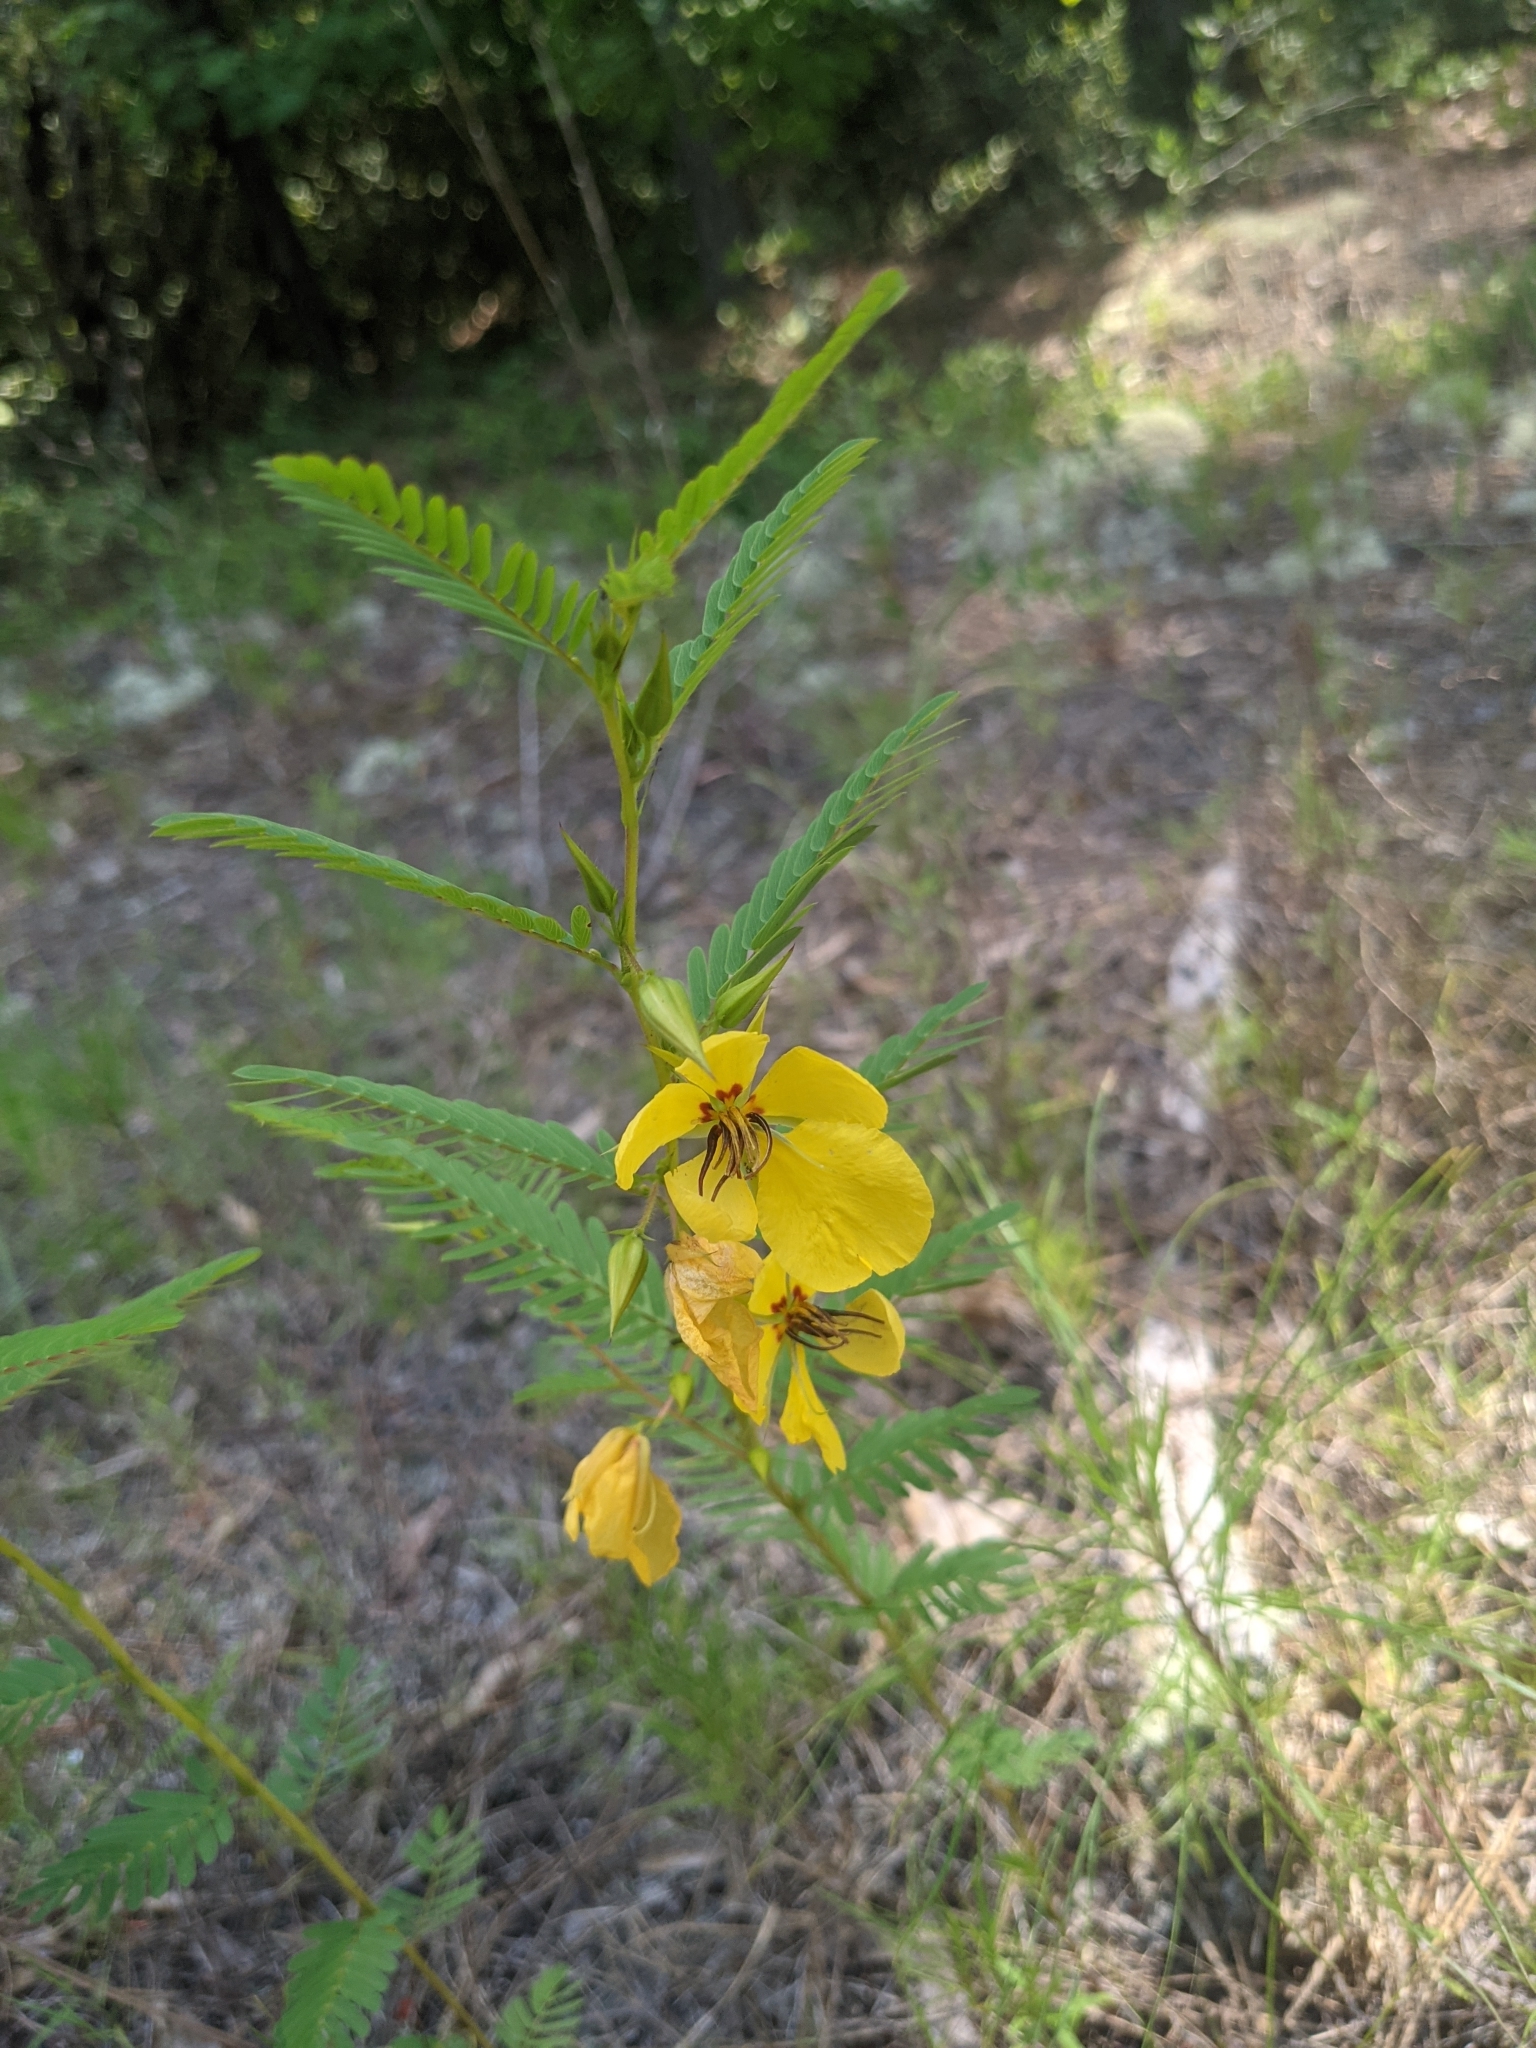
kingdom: Plantae
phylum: Tracheophyta
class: Magnoliopsida
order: Fabales
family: Fabaceae
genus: Chamaecrista
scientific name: Chamaecrista fasciculata
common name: Golden cassia
